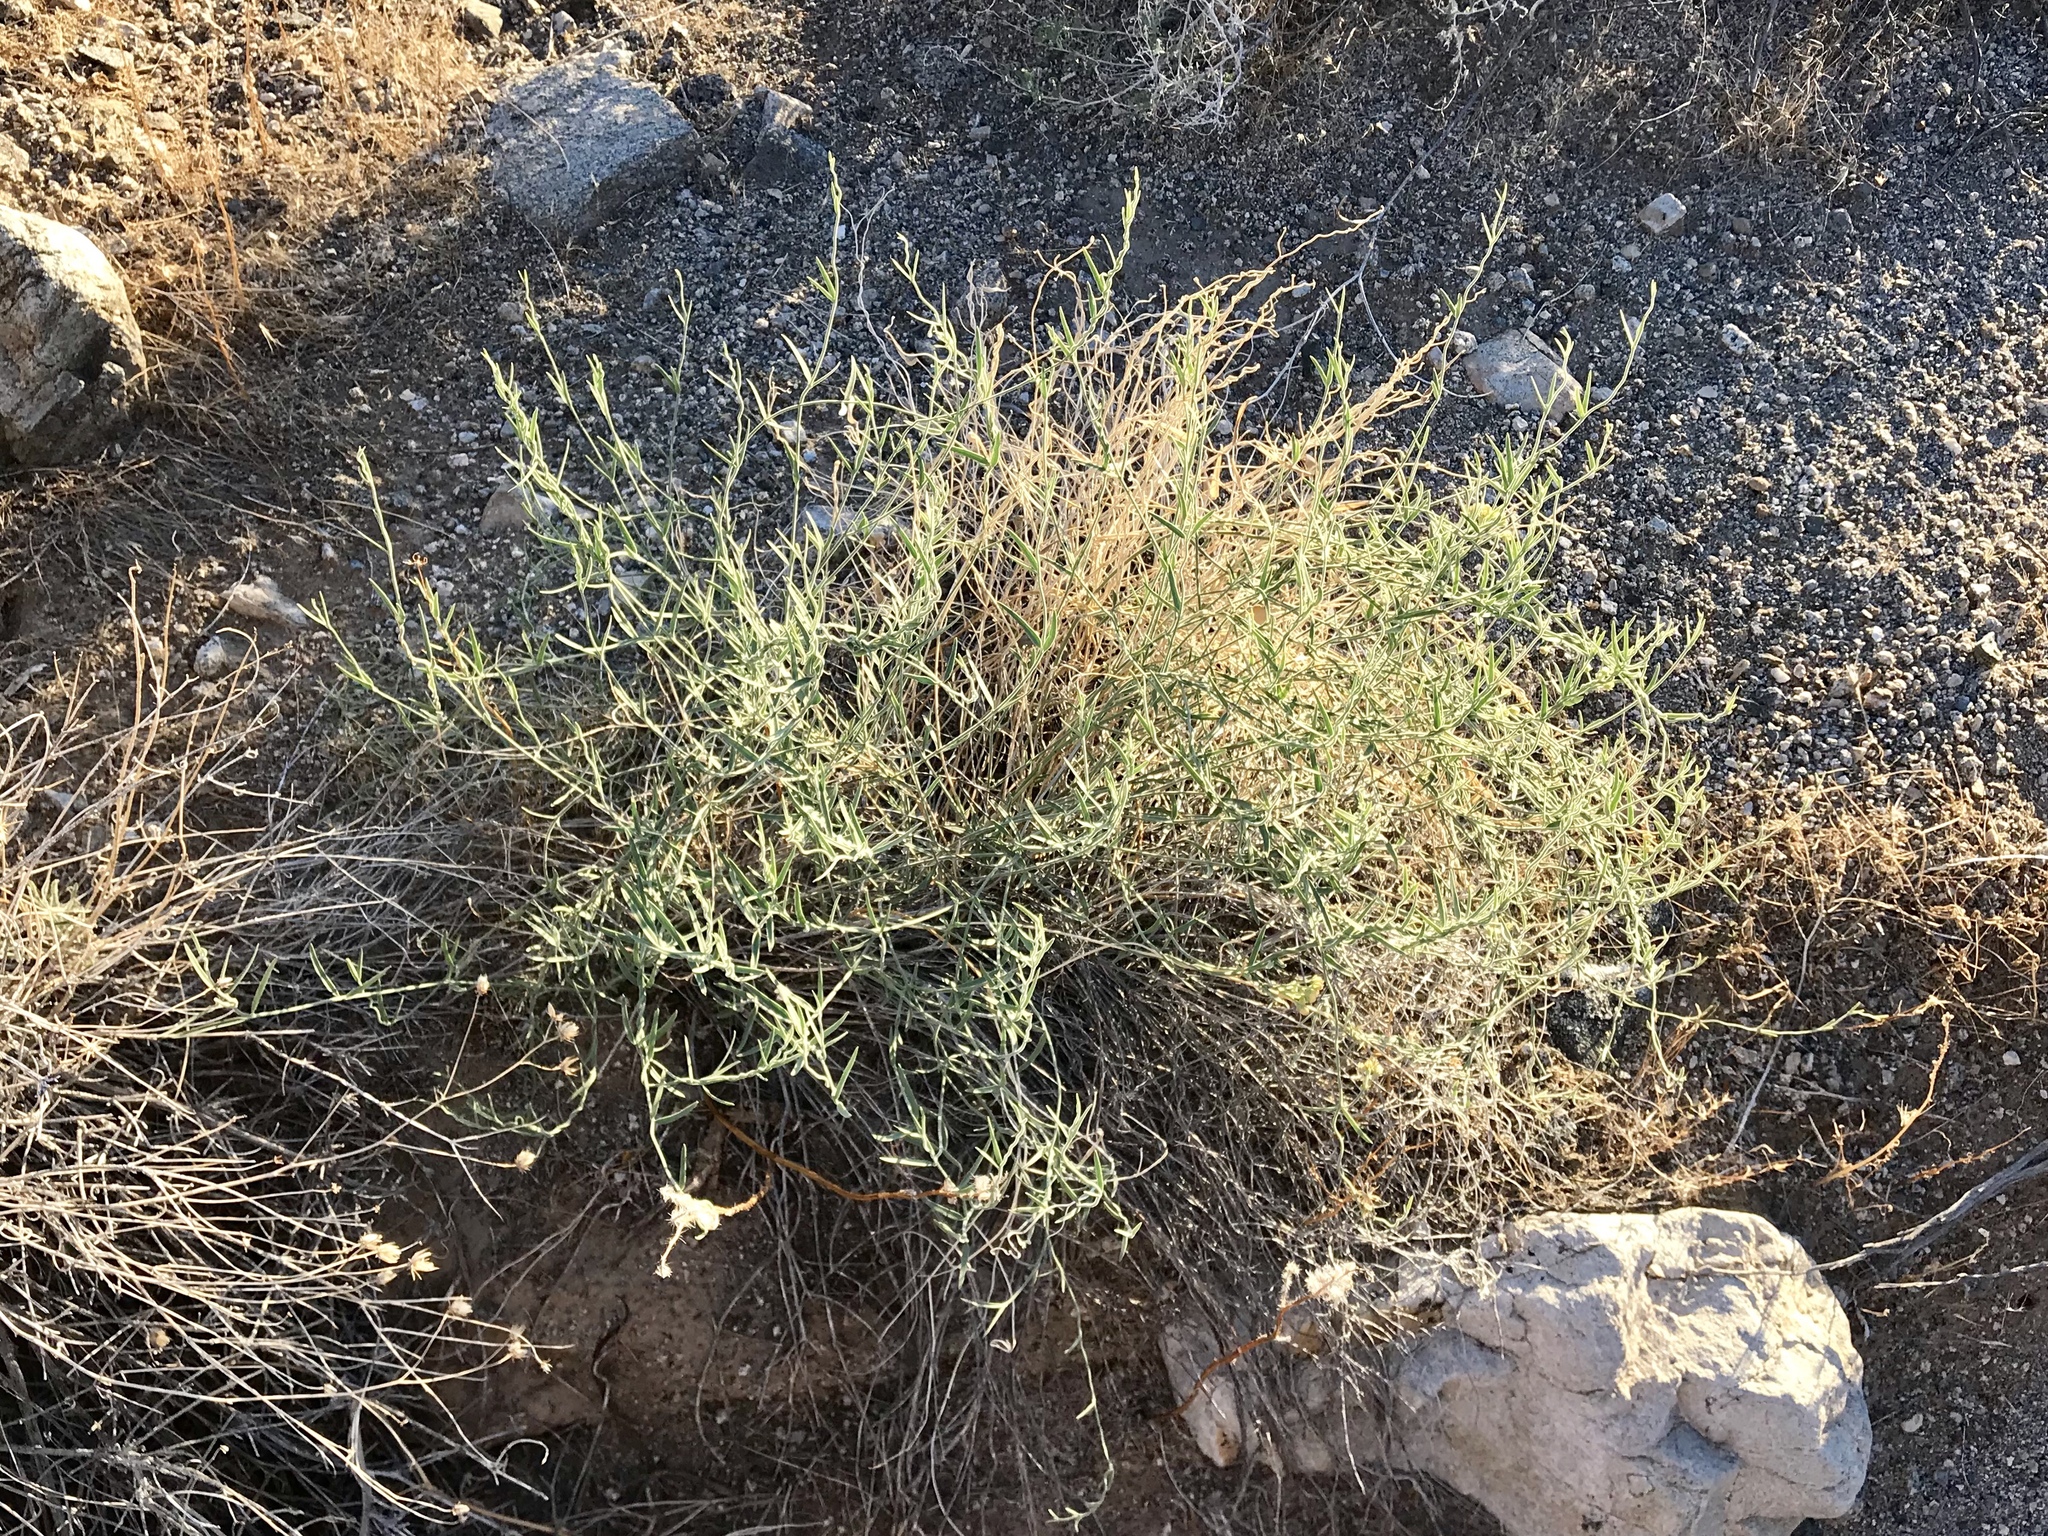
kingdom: Plantae
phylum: Tracheophyta
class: Magnoliopsida
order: Gentianales
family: Apocynaceae
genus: Funastrum
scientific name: Funastrum hirtellum
